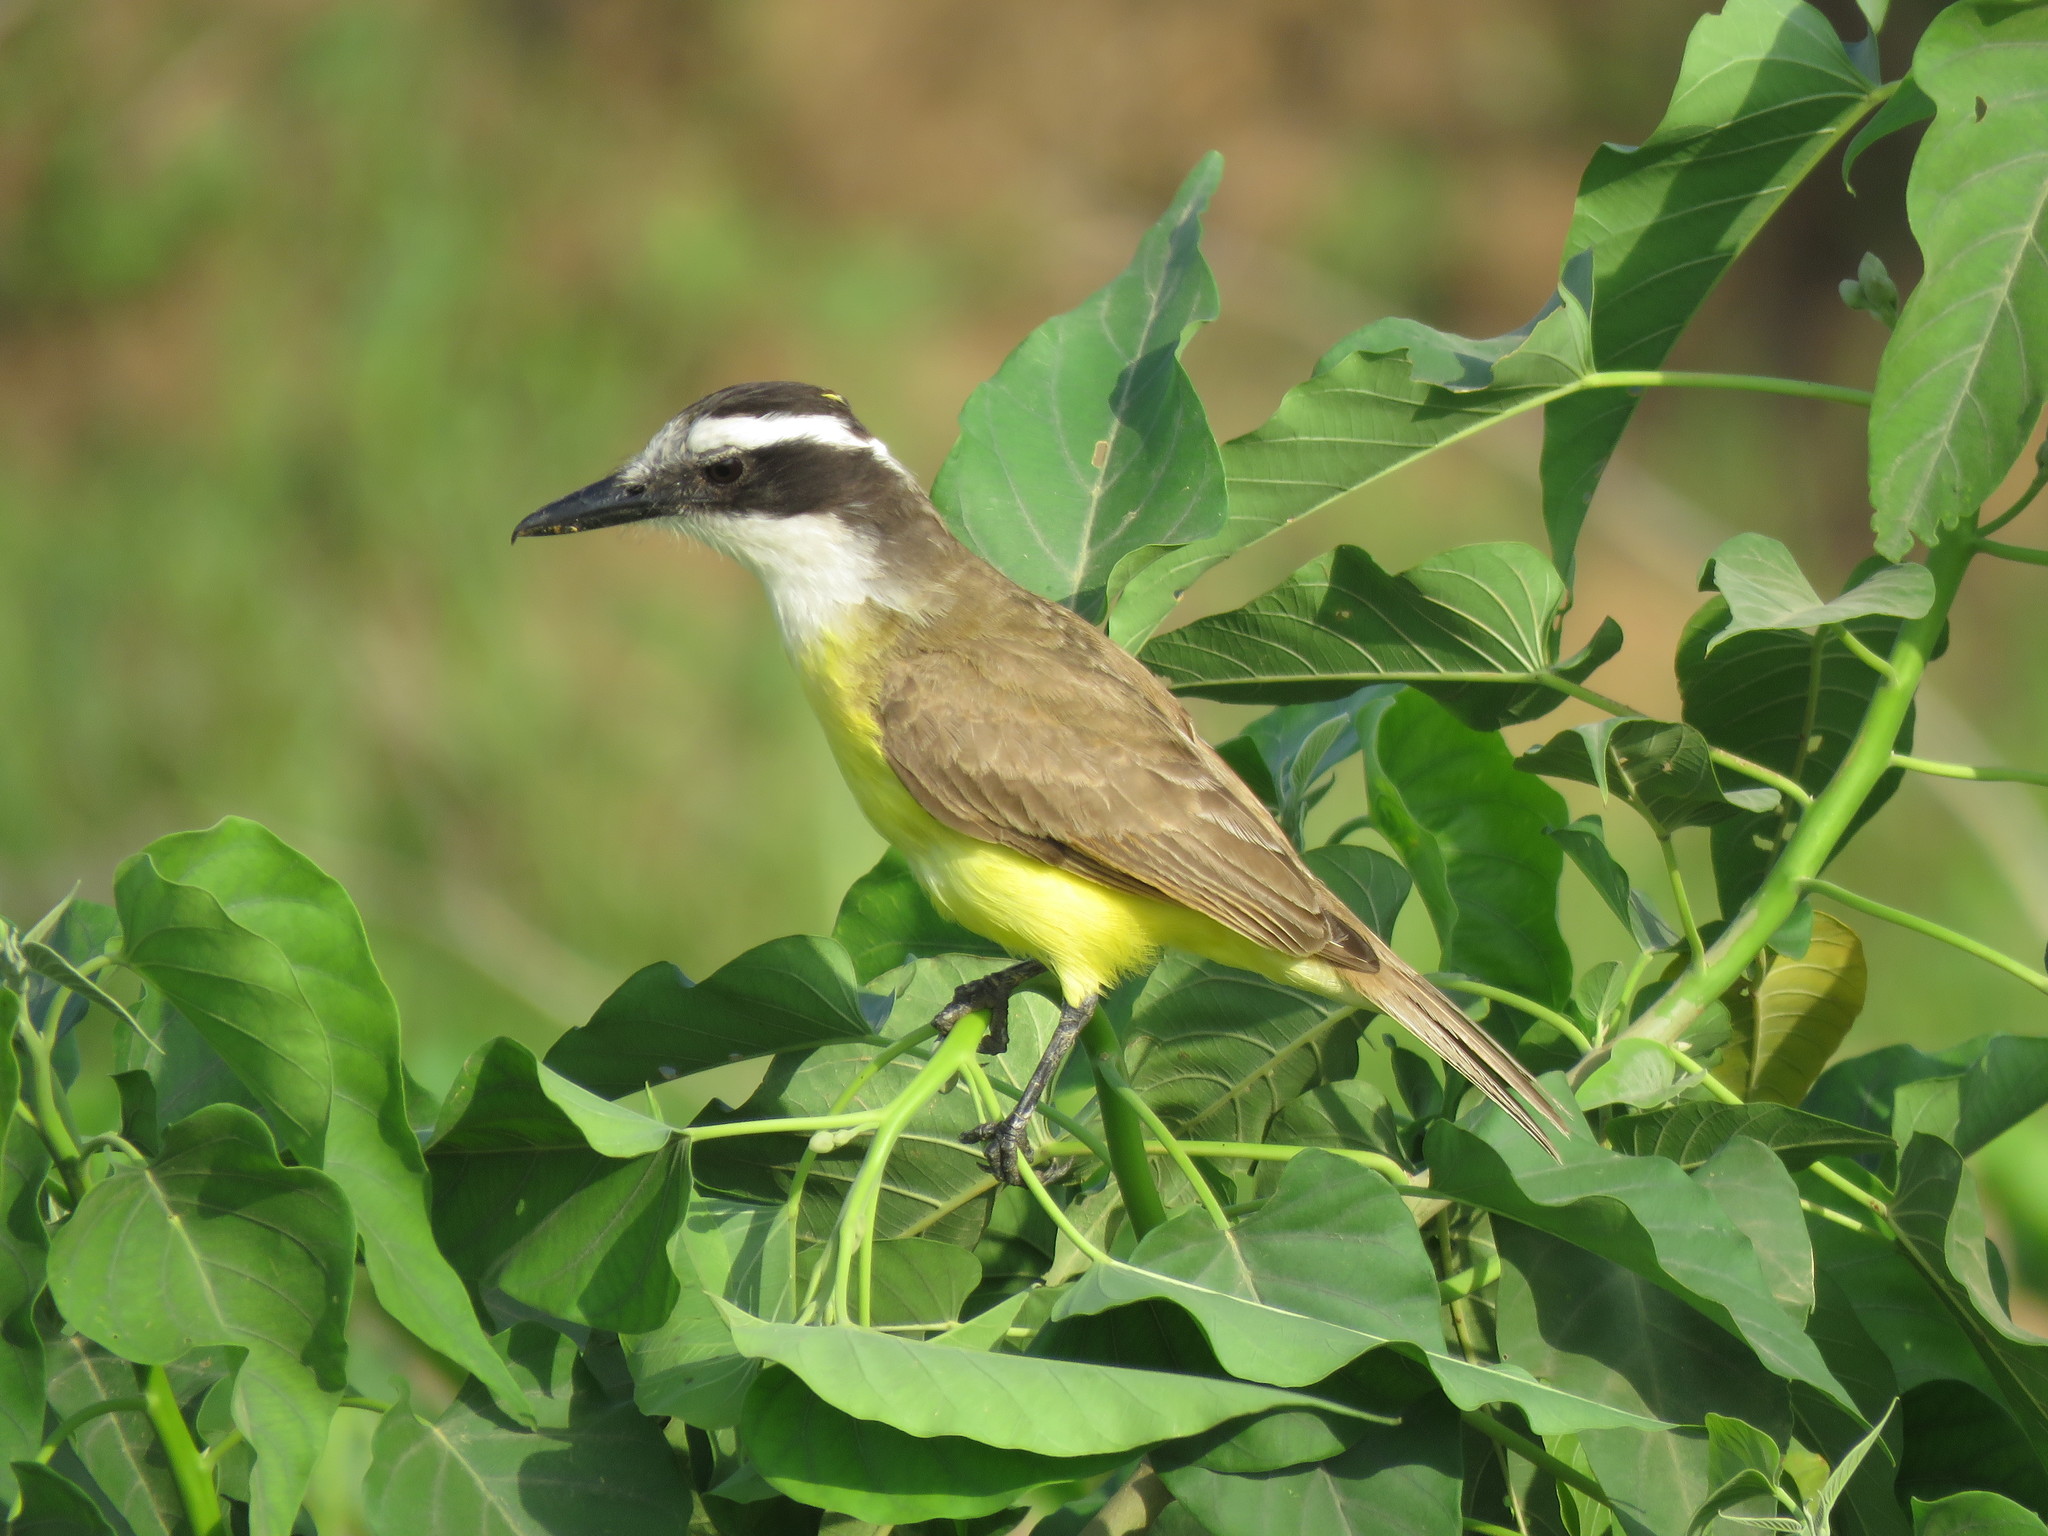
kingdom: Animalia
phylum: Chordata
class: Aves
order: Passeriformes
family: Tyrannidae
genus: Pitangus
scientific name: Pitangus lictor
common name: Lesser kiskadee
